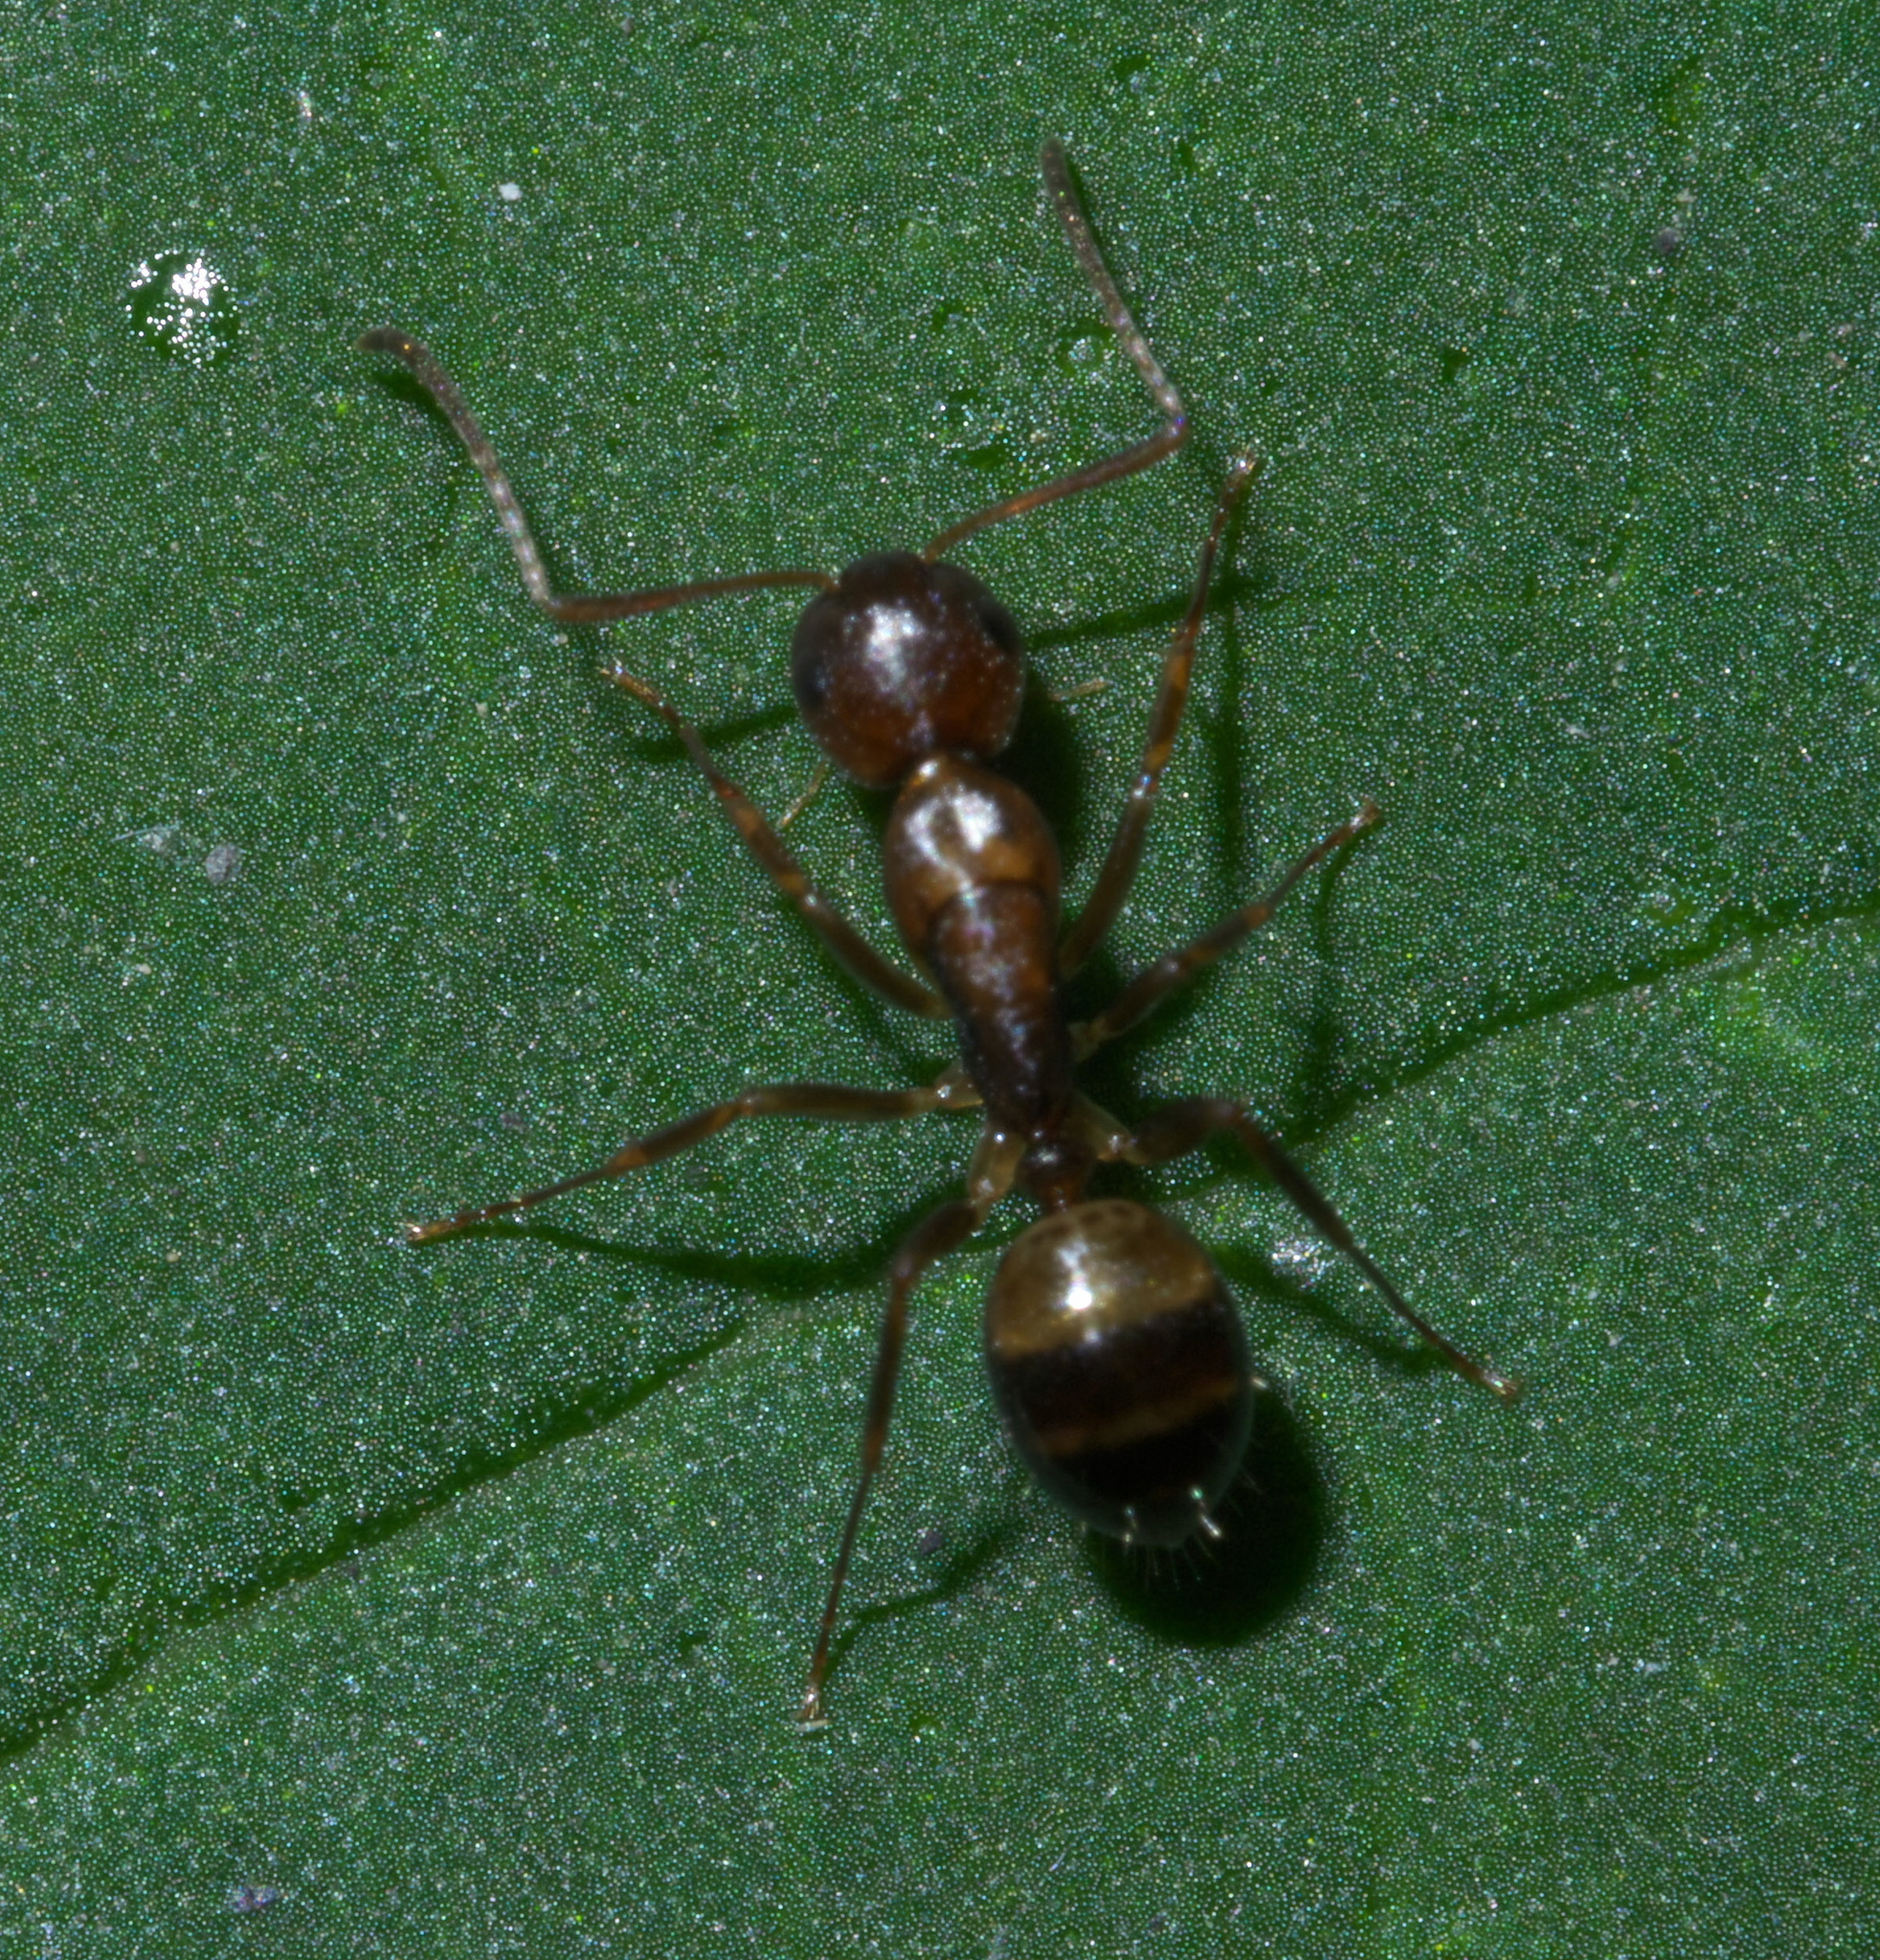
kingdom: Animalia
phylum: Arthropoda
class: Insecta
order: Hymenoptera
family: Formicidae
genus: Camponotus
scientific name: Camponotus subbarbatus
